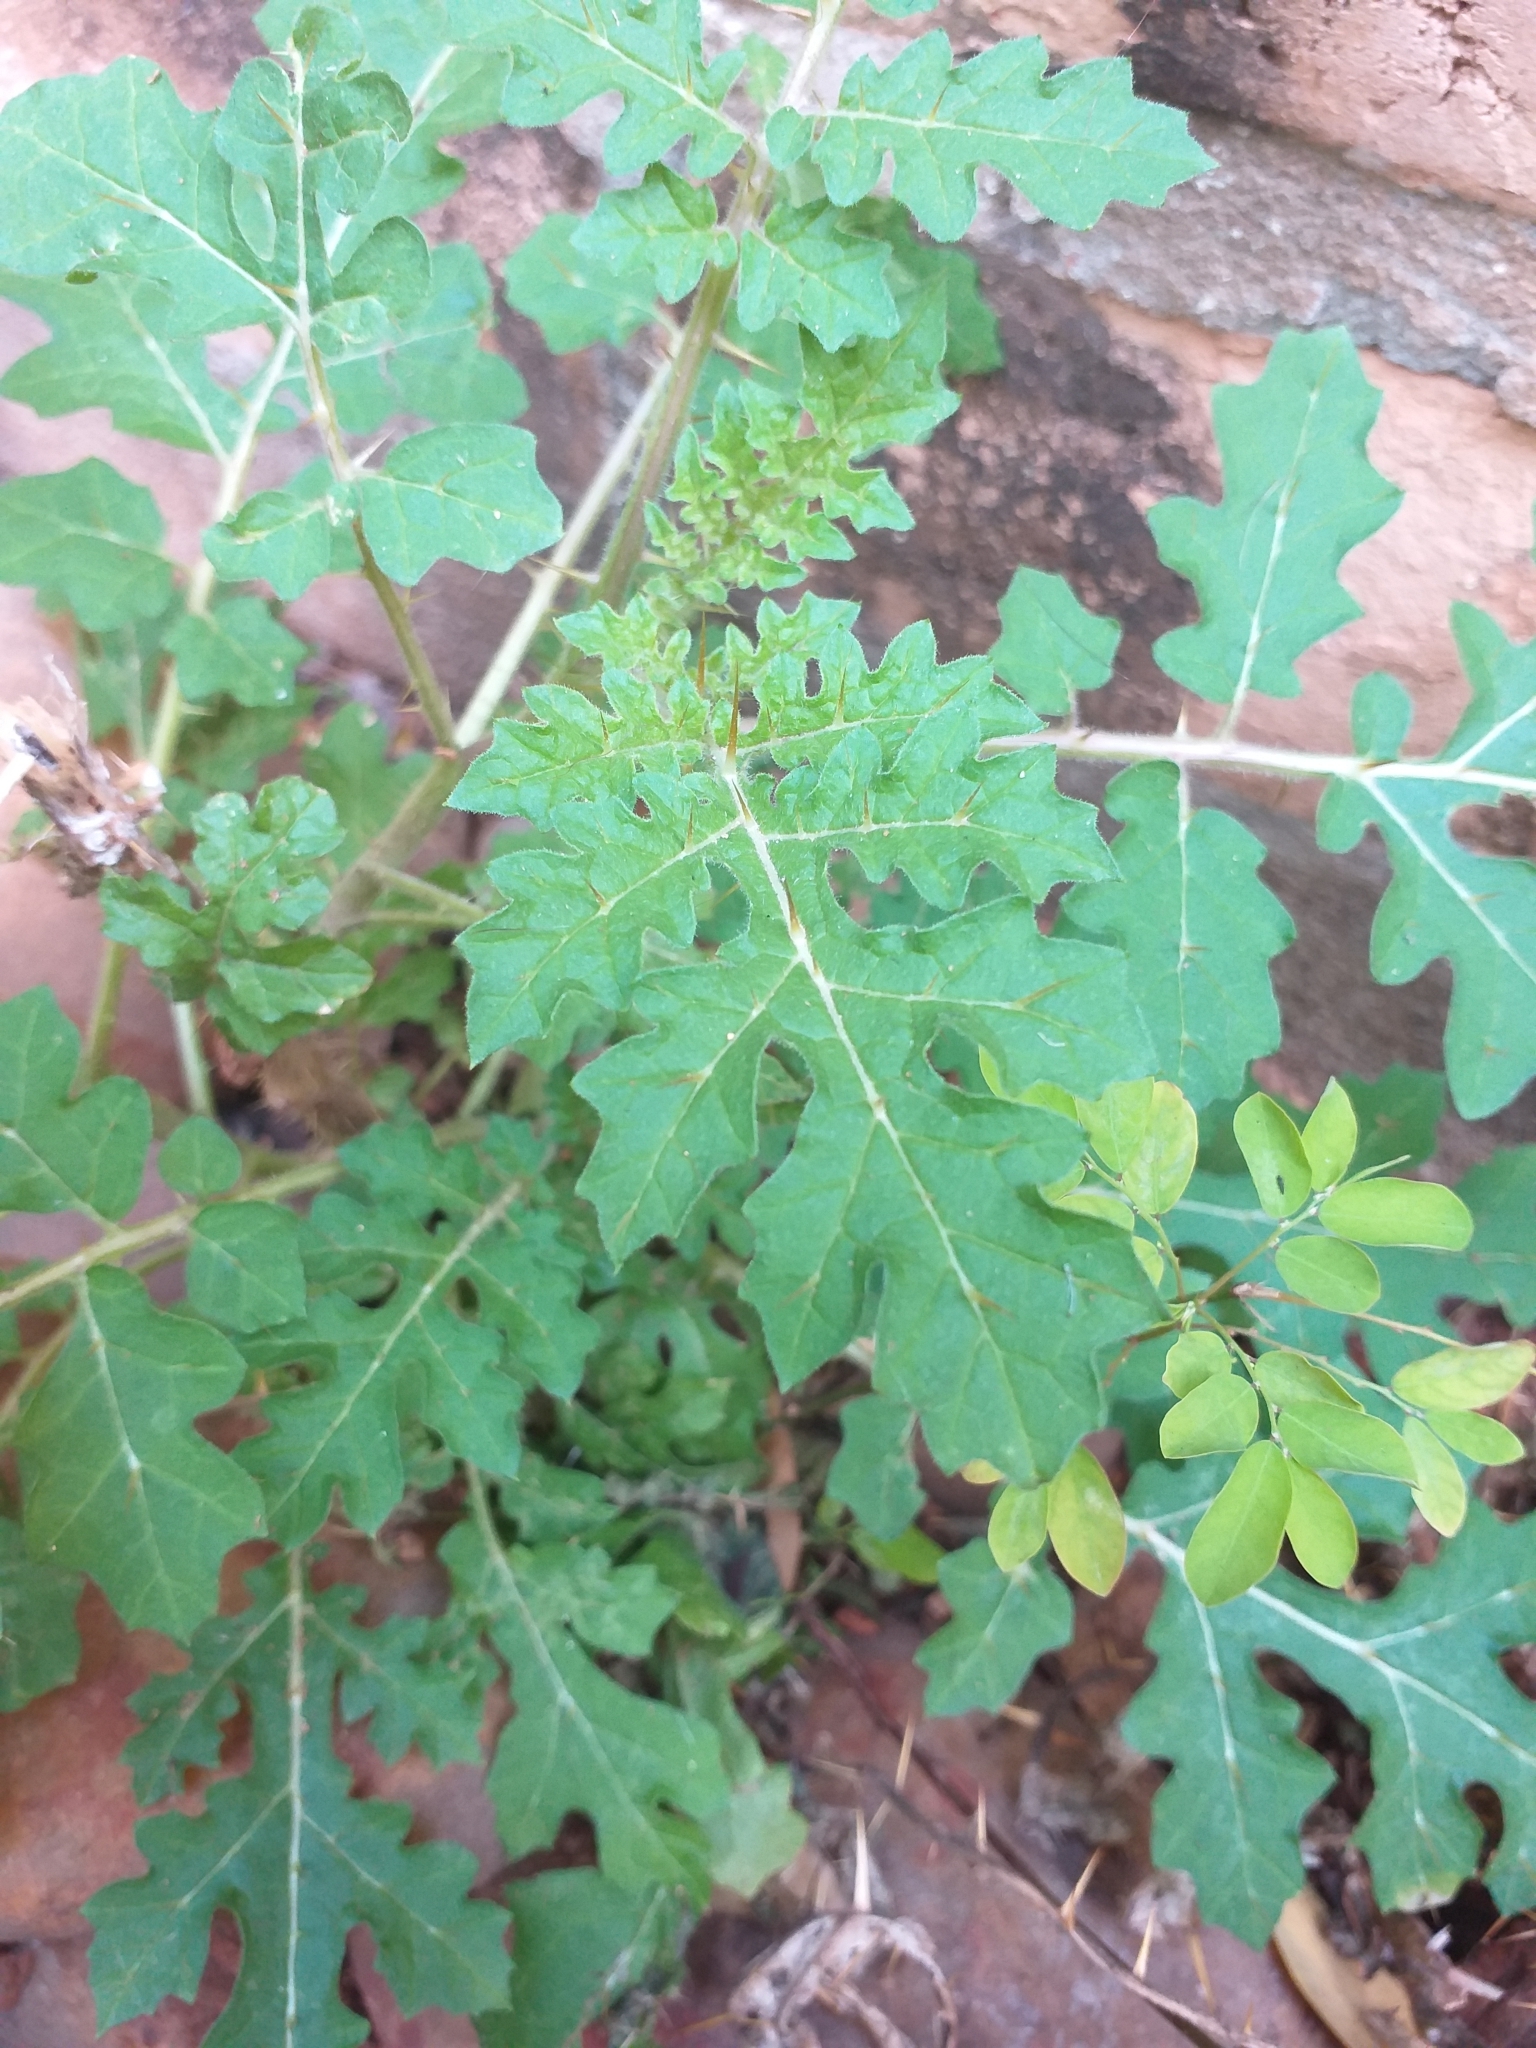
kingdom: Plantae
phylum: Tracheophyta
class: Magnoliopsida
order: Solanales
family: Solanaceae
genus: Solanum
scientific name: Solanum sisymbriifolium
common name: Red buffalo-bur
